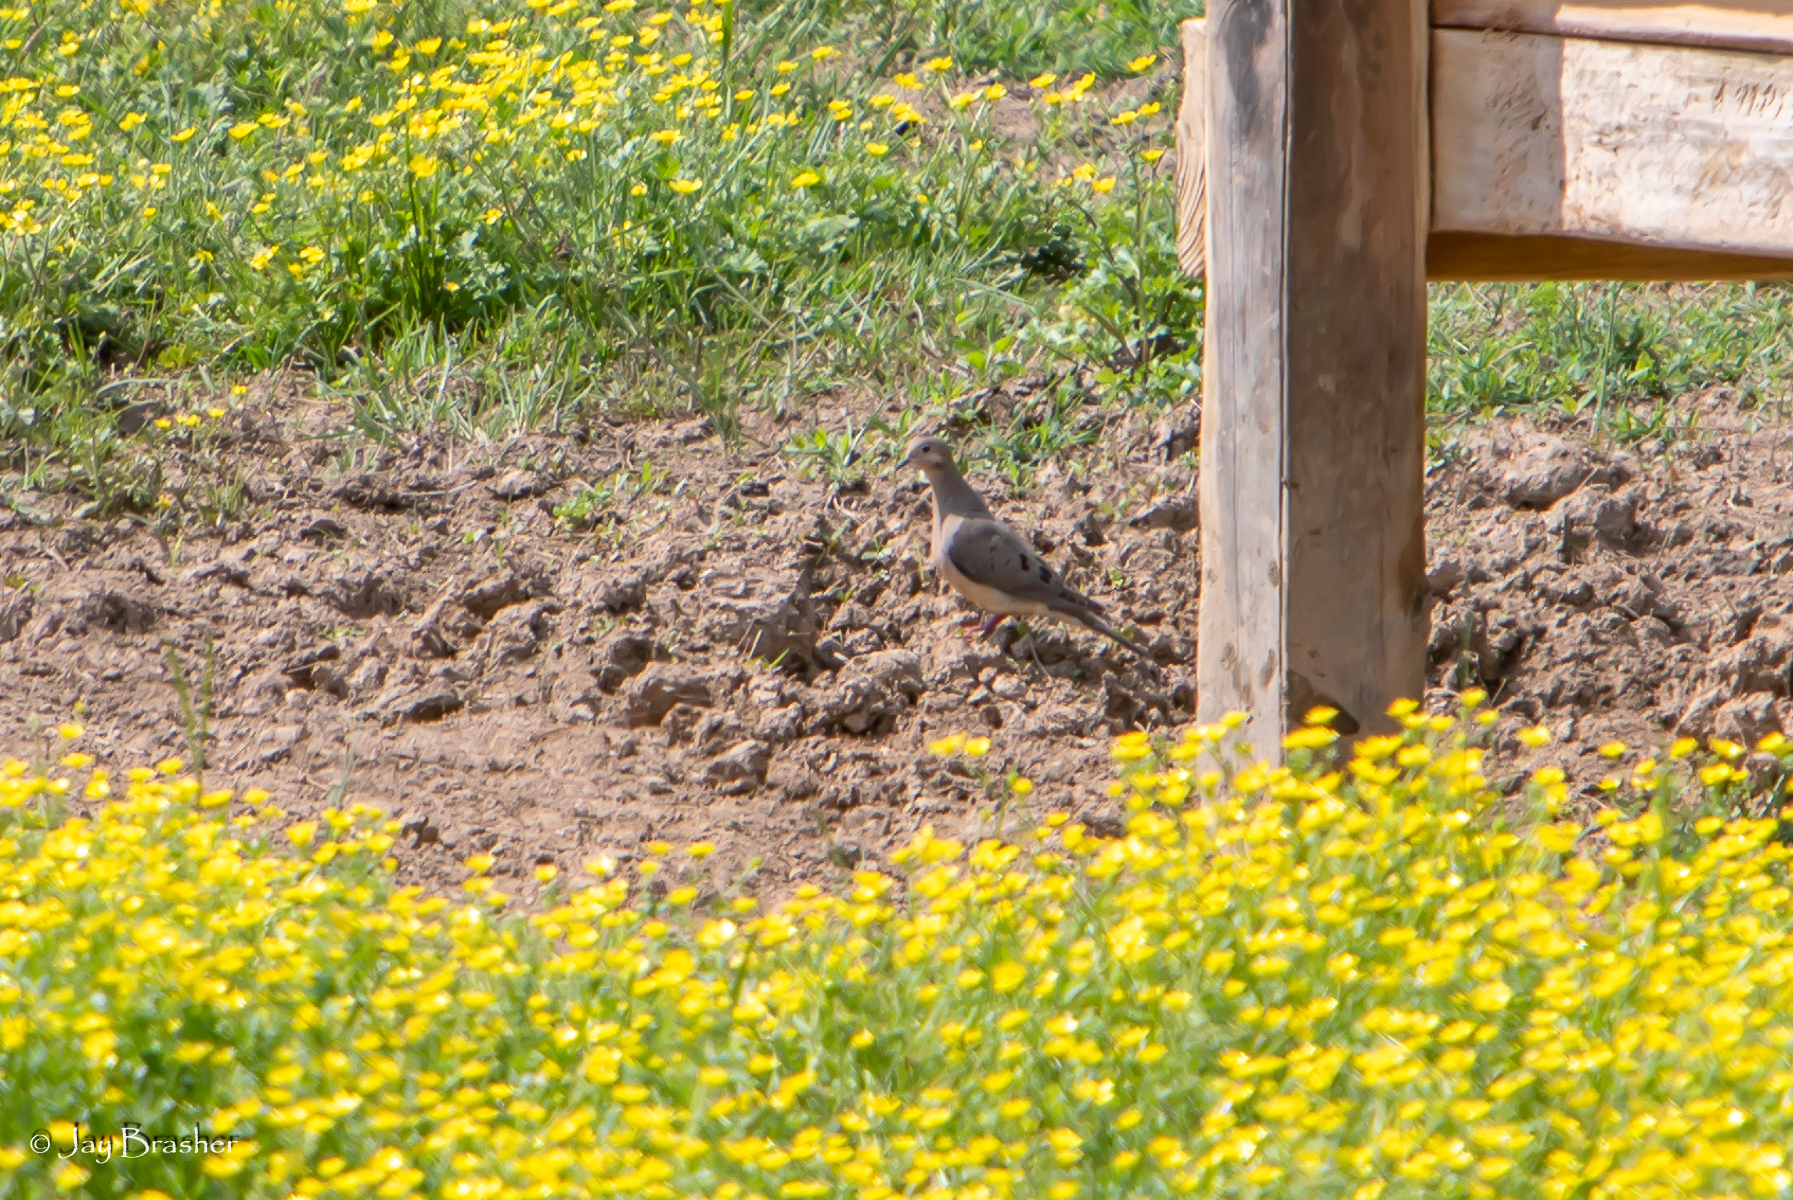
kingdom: Animalia
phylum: Chordata
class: Aves
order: Columbiformes
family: Columbidae
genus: Zenaida
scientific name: Zenaida macroura
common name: Mourning dove
